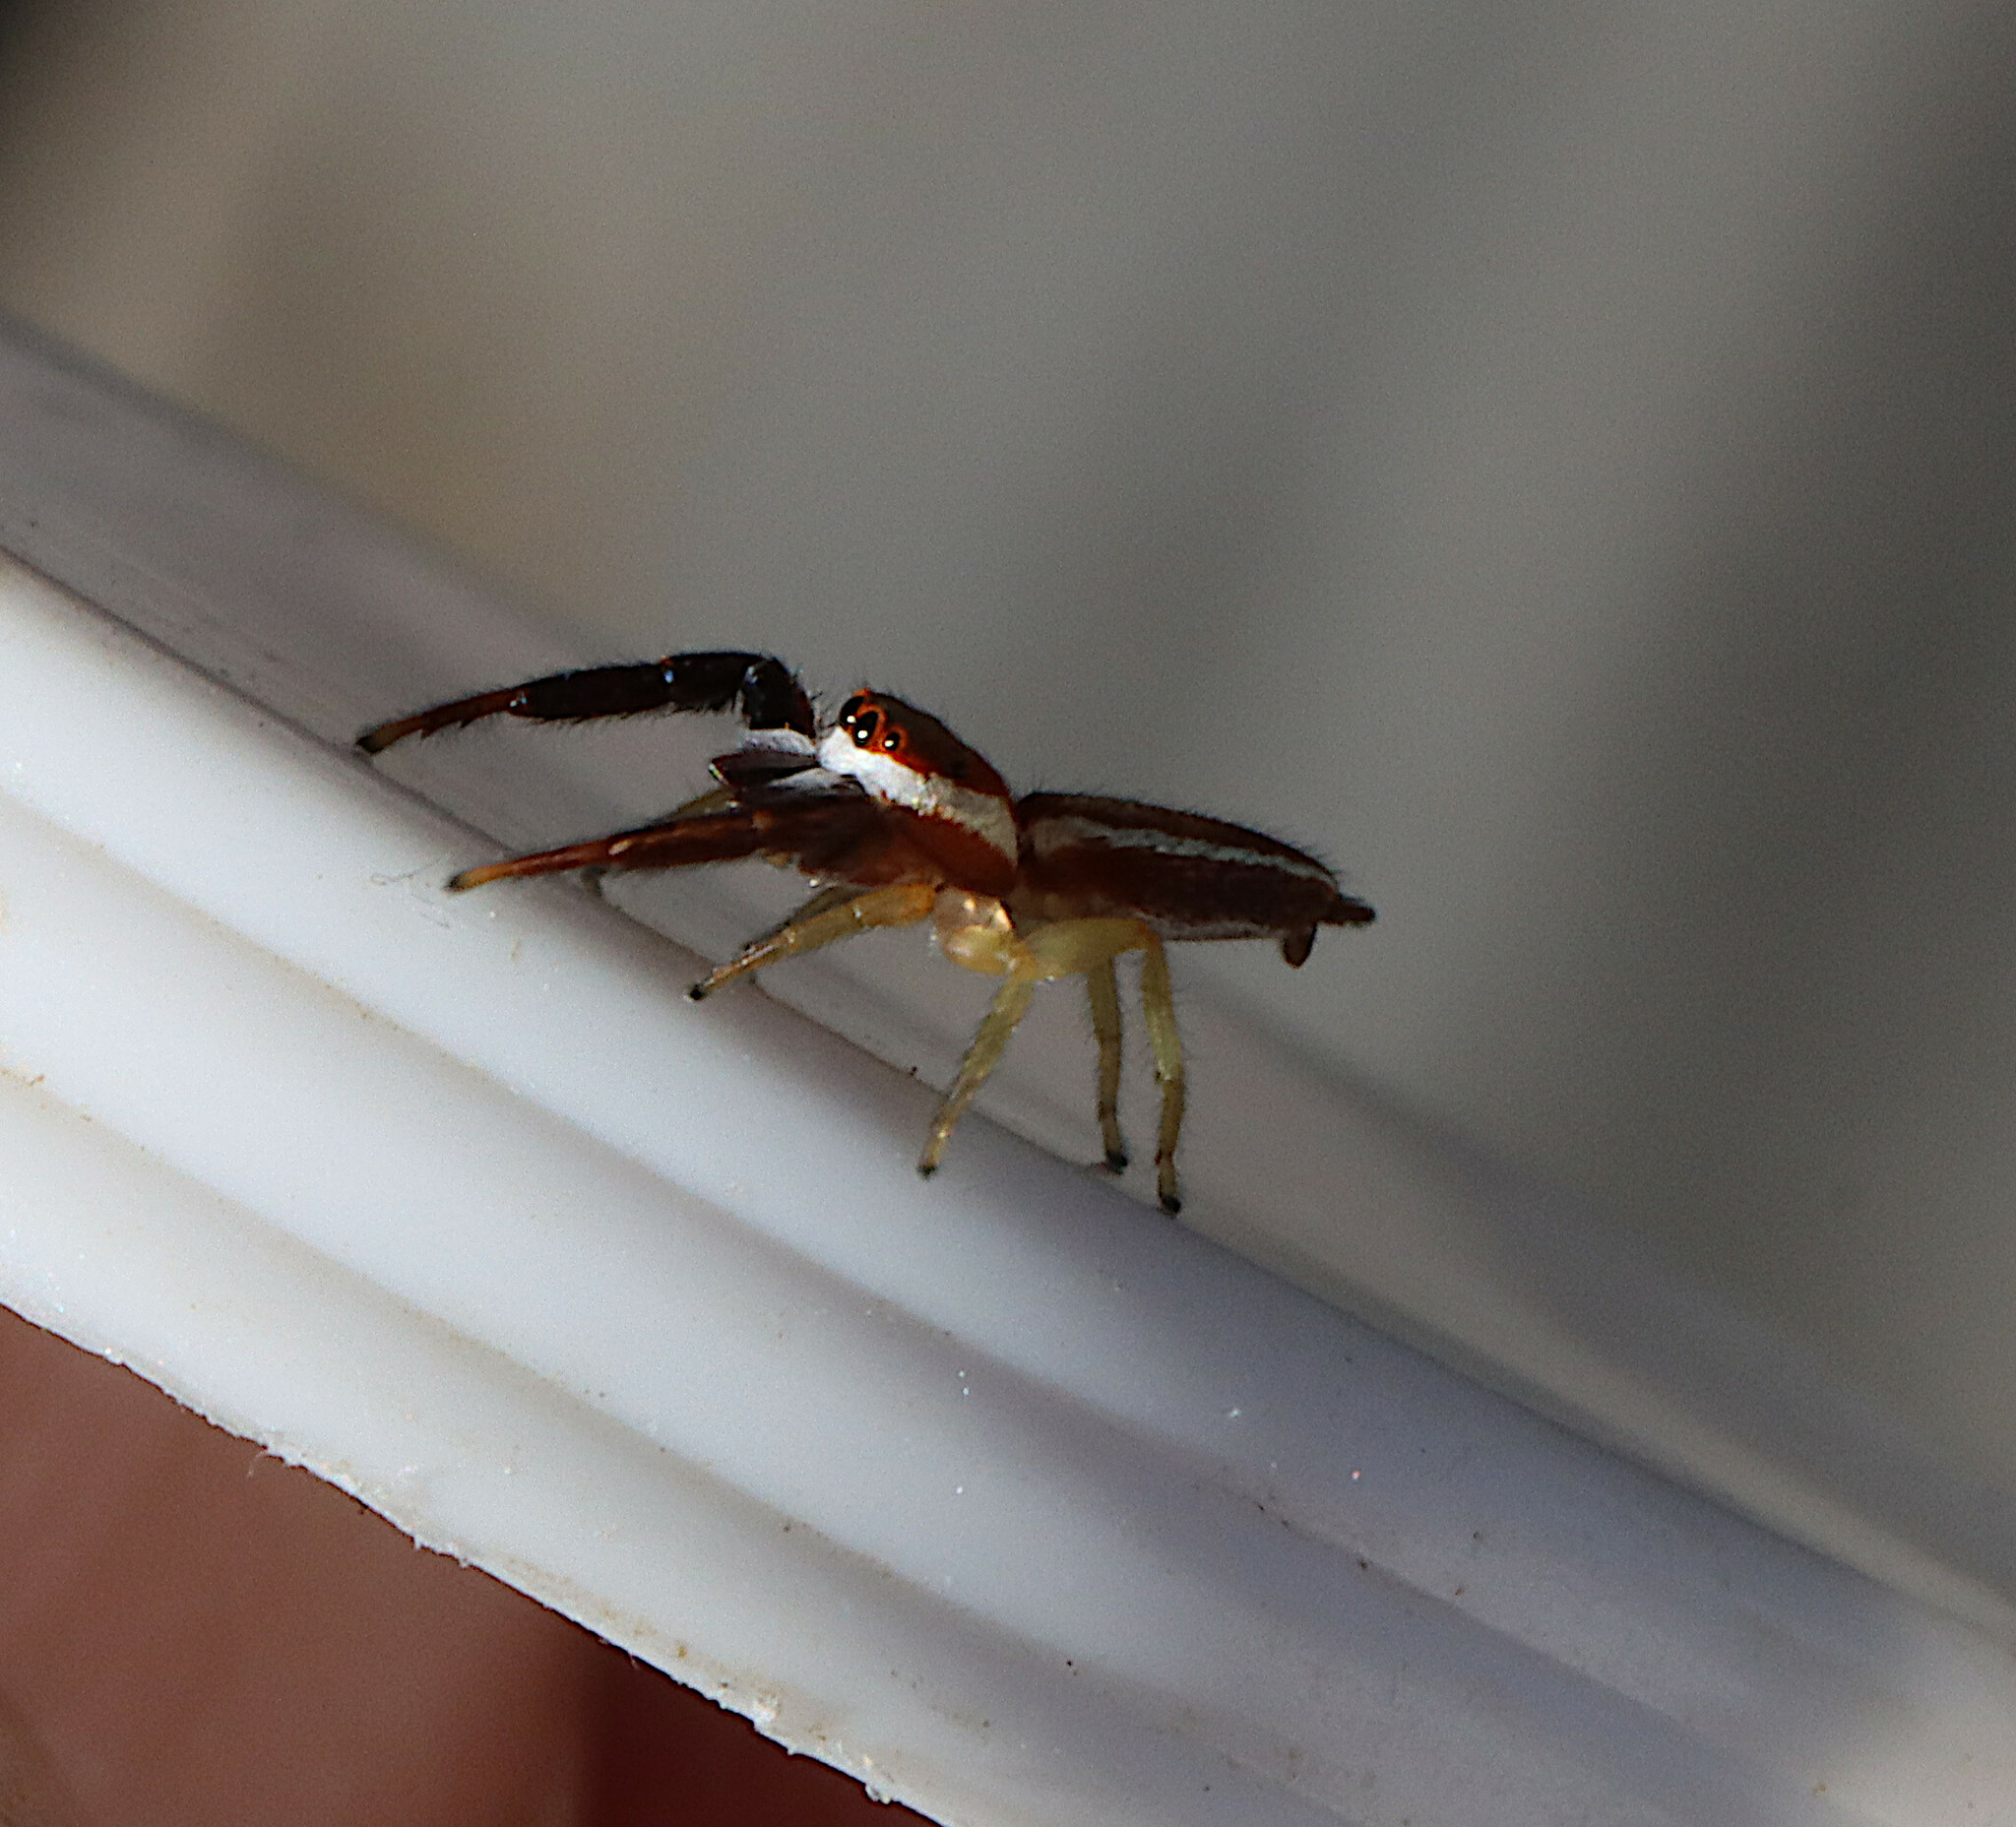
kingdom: Animalia
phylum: Arthropoda
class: Arachnida
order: Araneae
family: Salticidae
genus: Hentzia
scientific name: Hentzia palmarum
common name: Common hentz jumping spider
